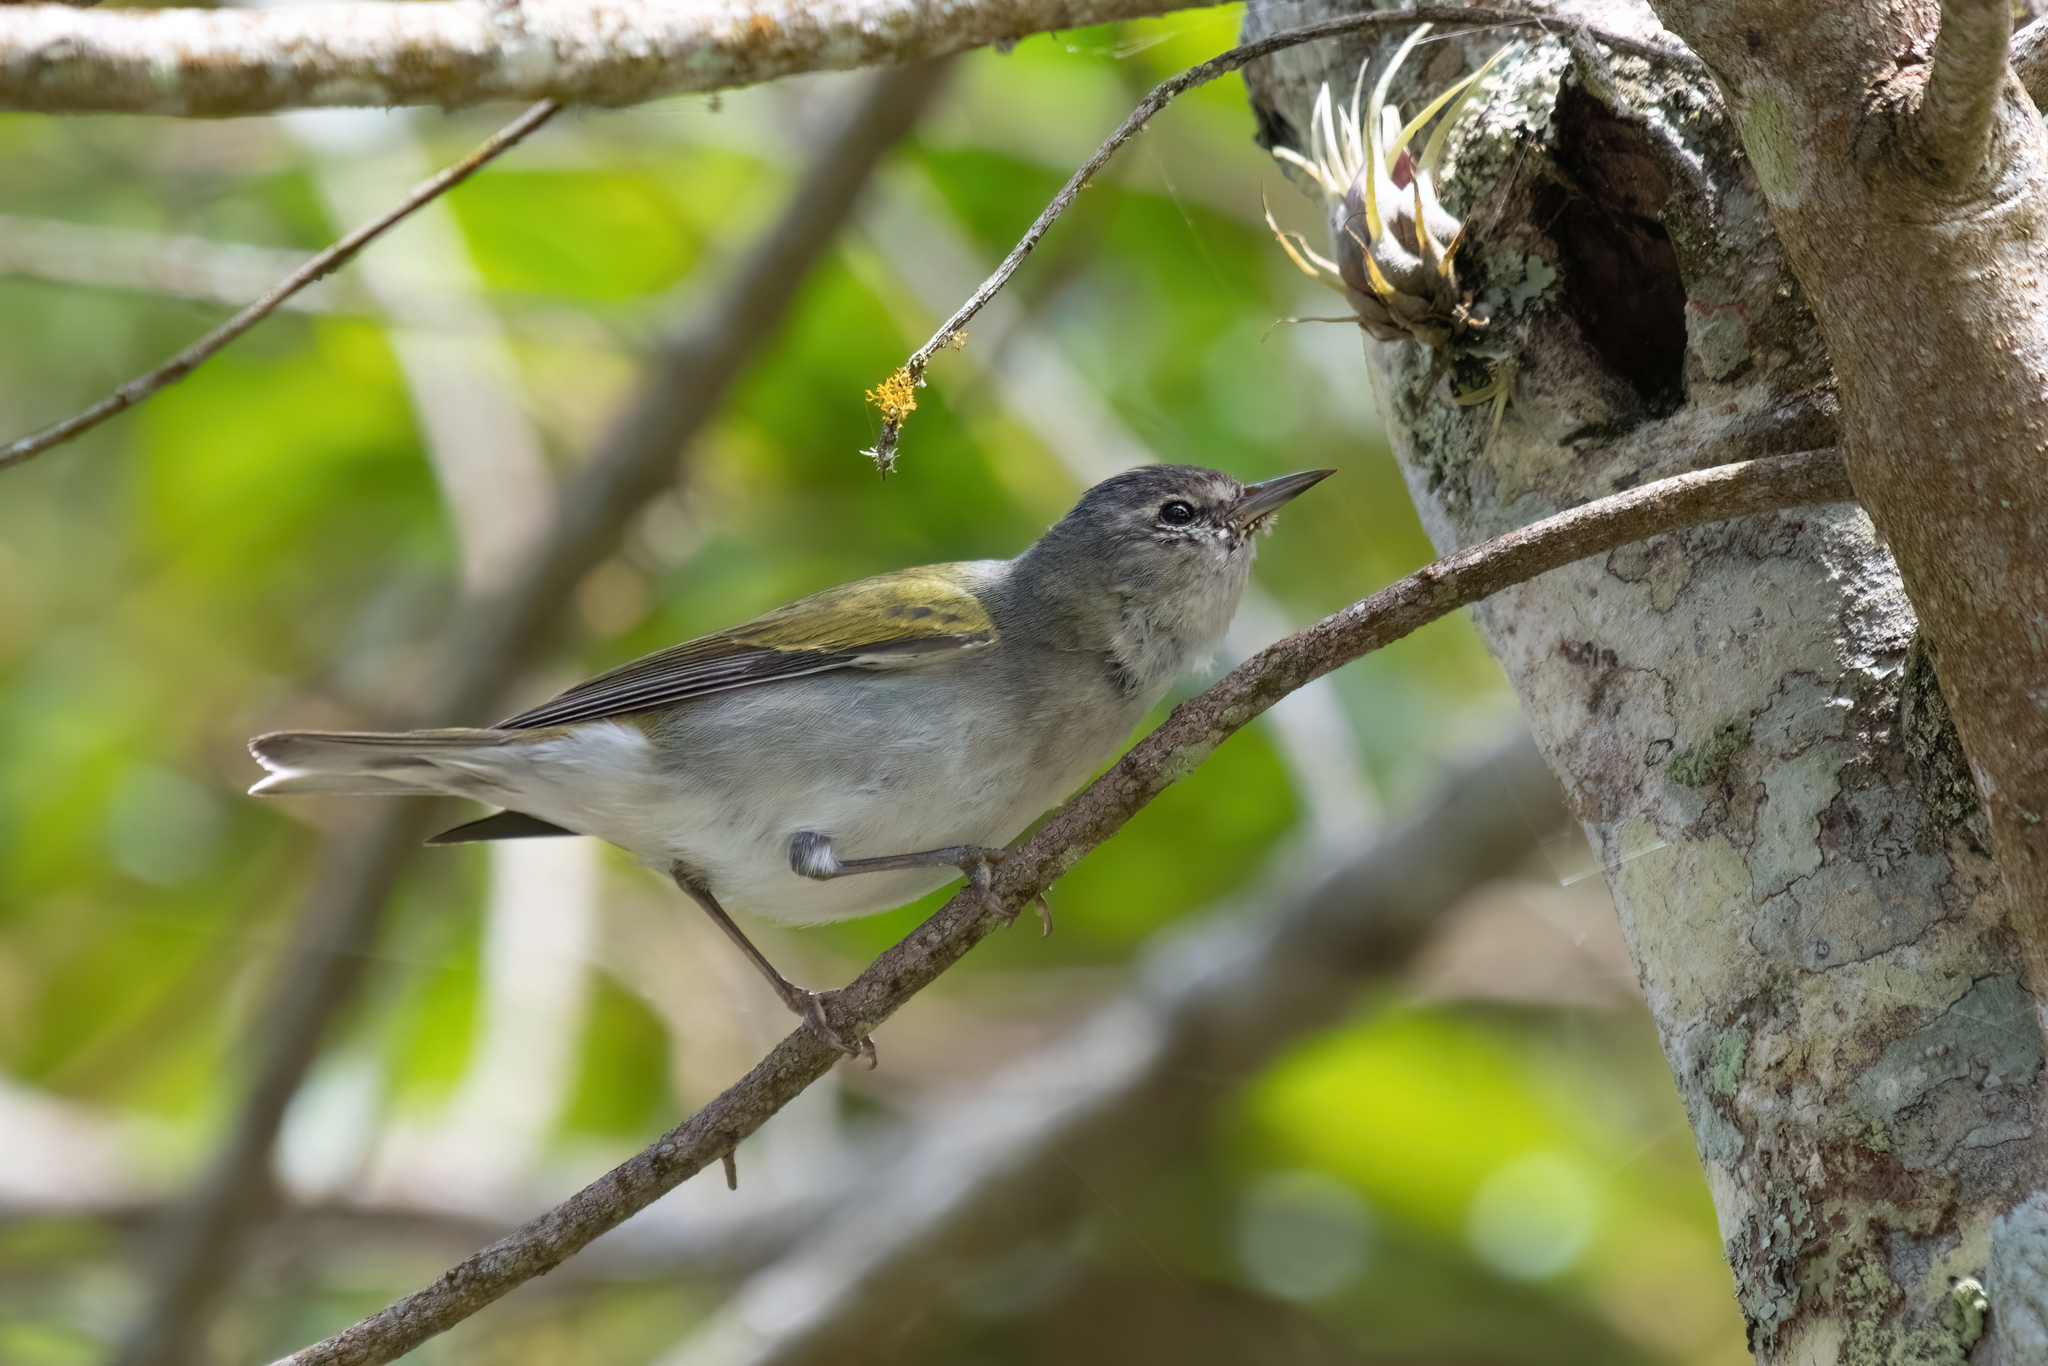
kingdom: Animalia
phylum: Chordata
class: Aves
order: Passeriformes
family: Parulidae
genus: Leiothlypis
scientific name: Leiothlypis peregrina
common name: Tennessee warbler
